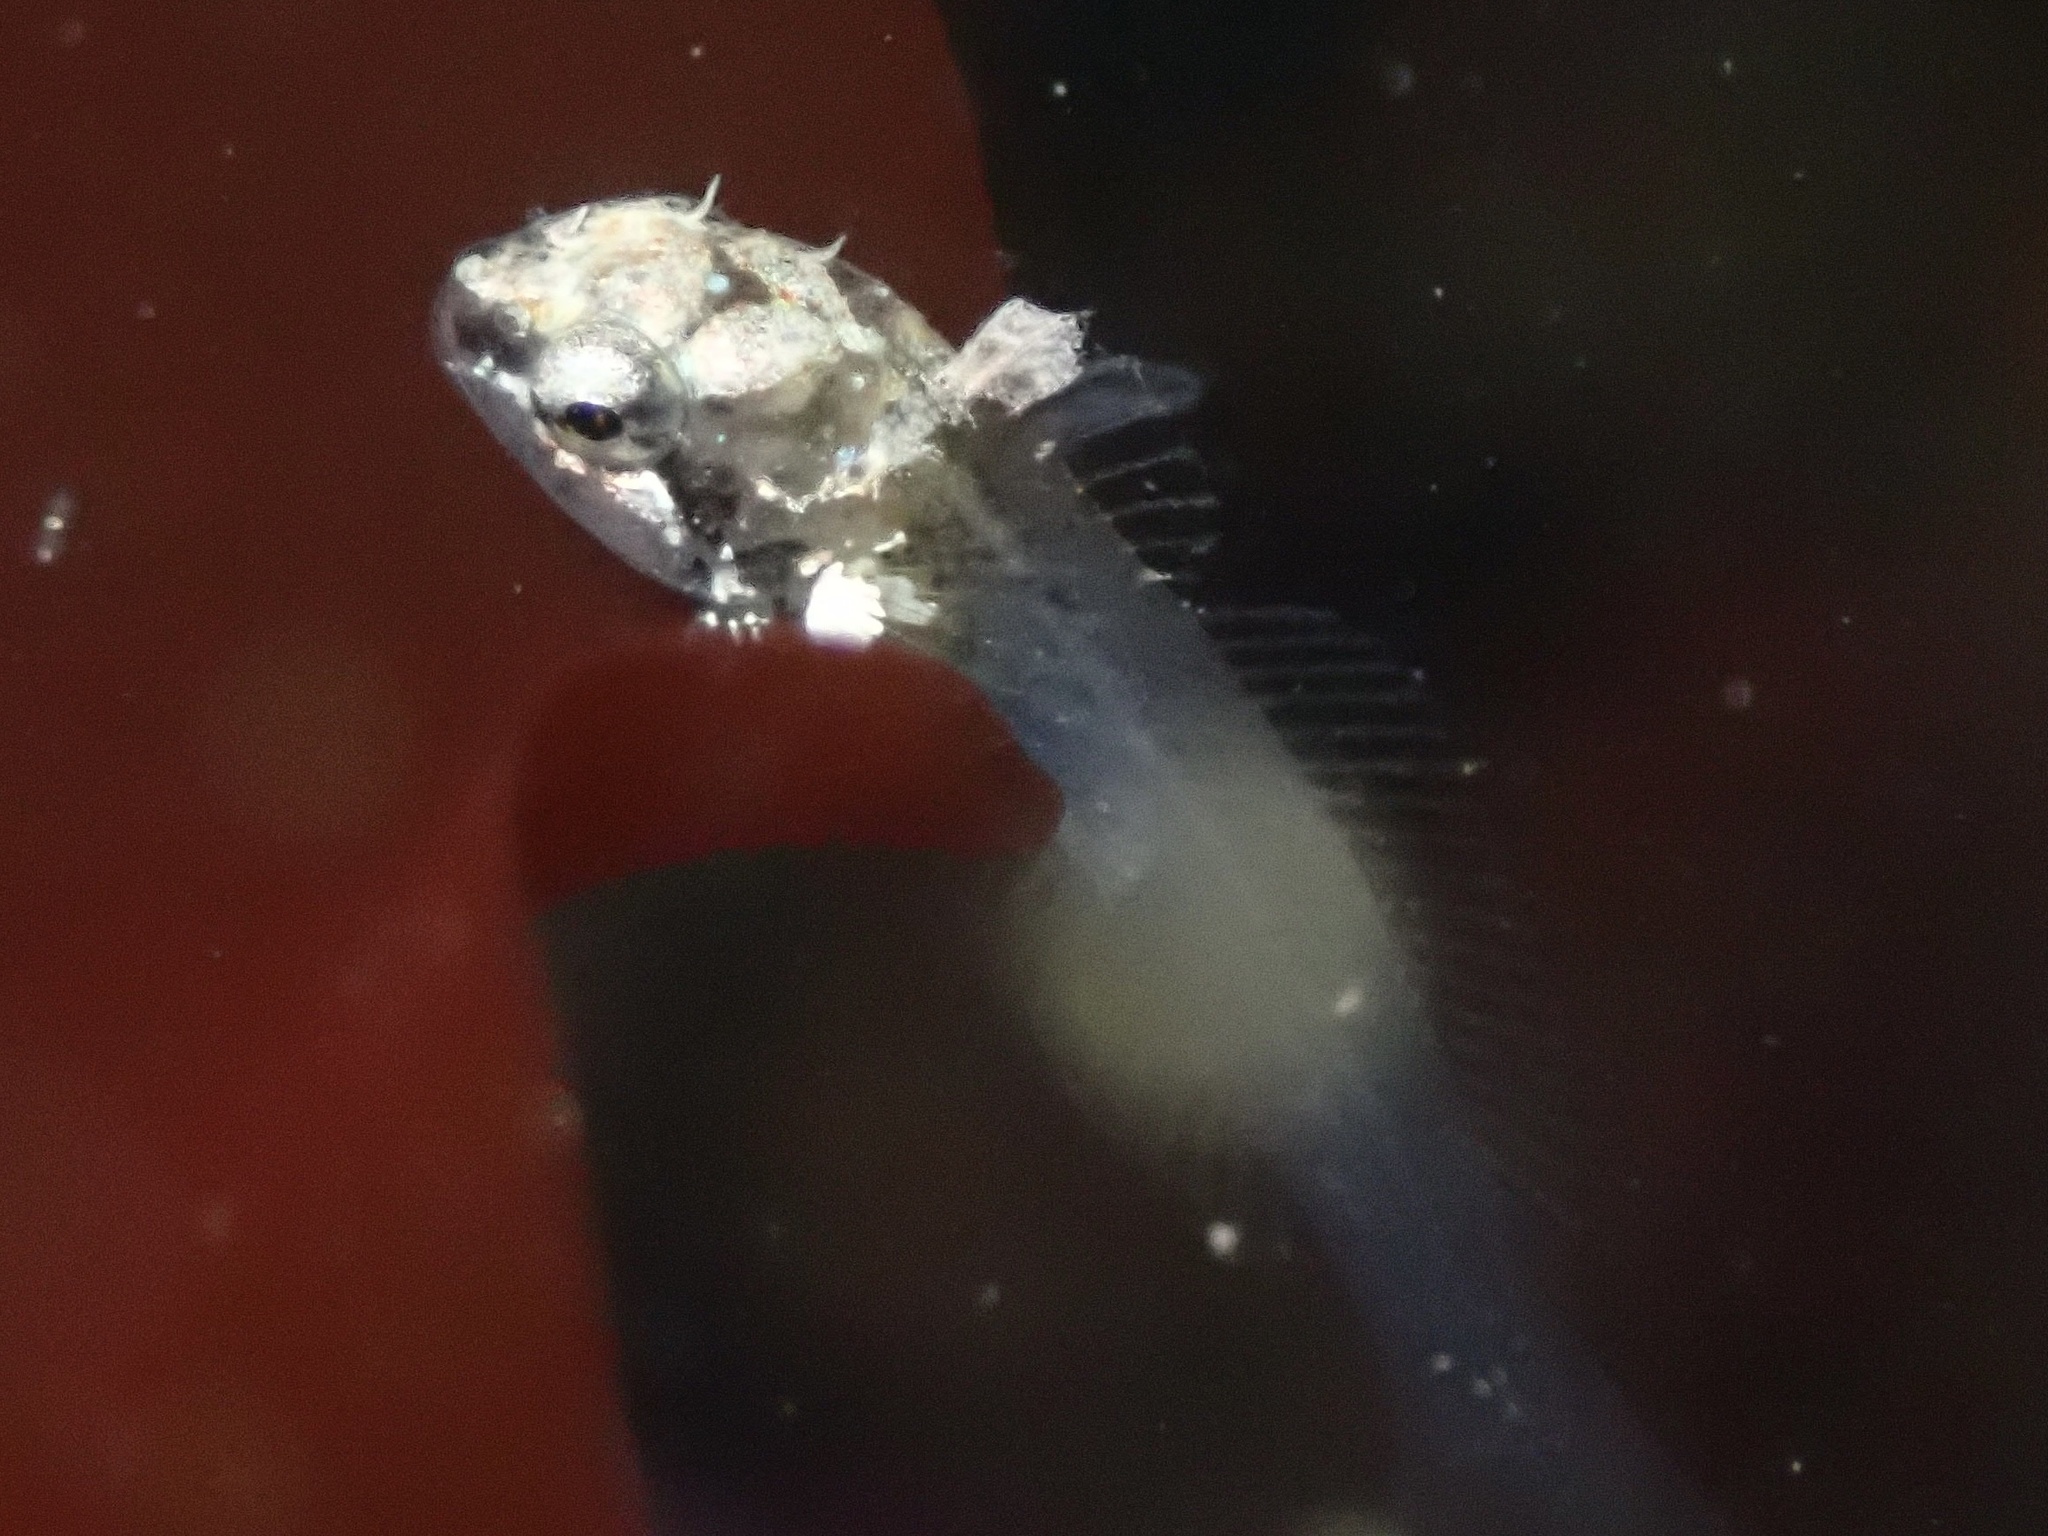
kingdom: Animalia
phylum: Chordata
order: Scorpaeniformes
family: Cottidae
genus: Oligocottus
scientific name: Oligocottus snyderi
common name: Fluffy sculpin
